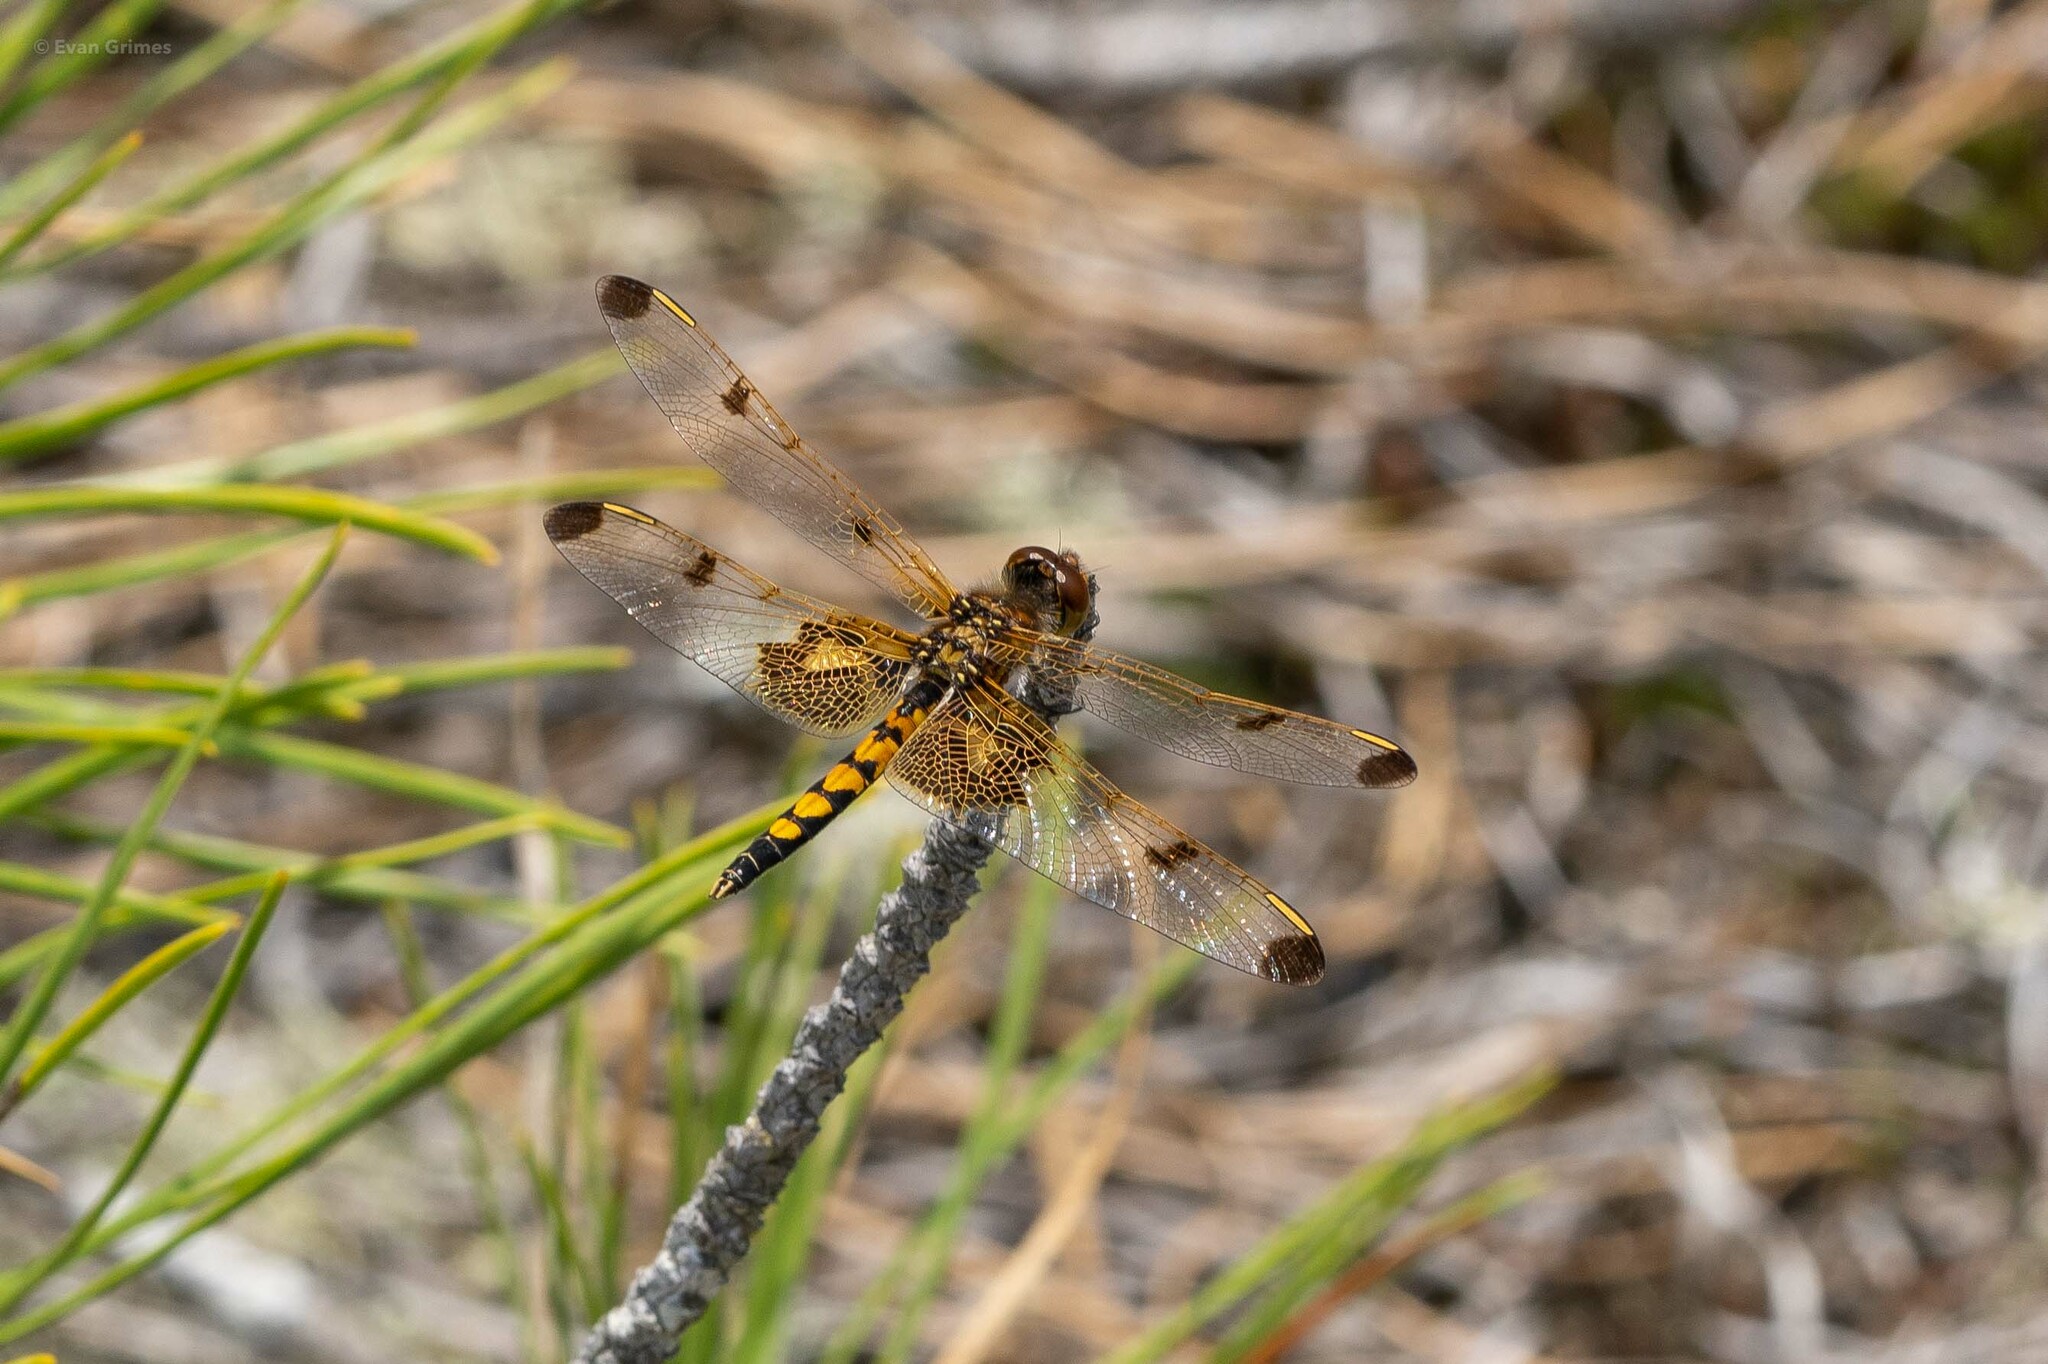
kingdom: Animalia
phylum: Arthropoda
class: Insecta
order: Odonata
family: Libellulidae
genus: Celithemis
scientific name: Celithemis elisa
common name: Calico pennant
